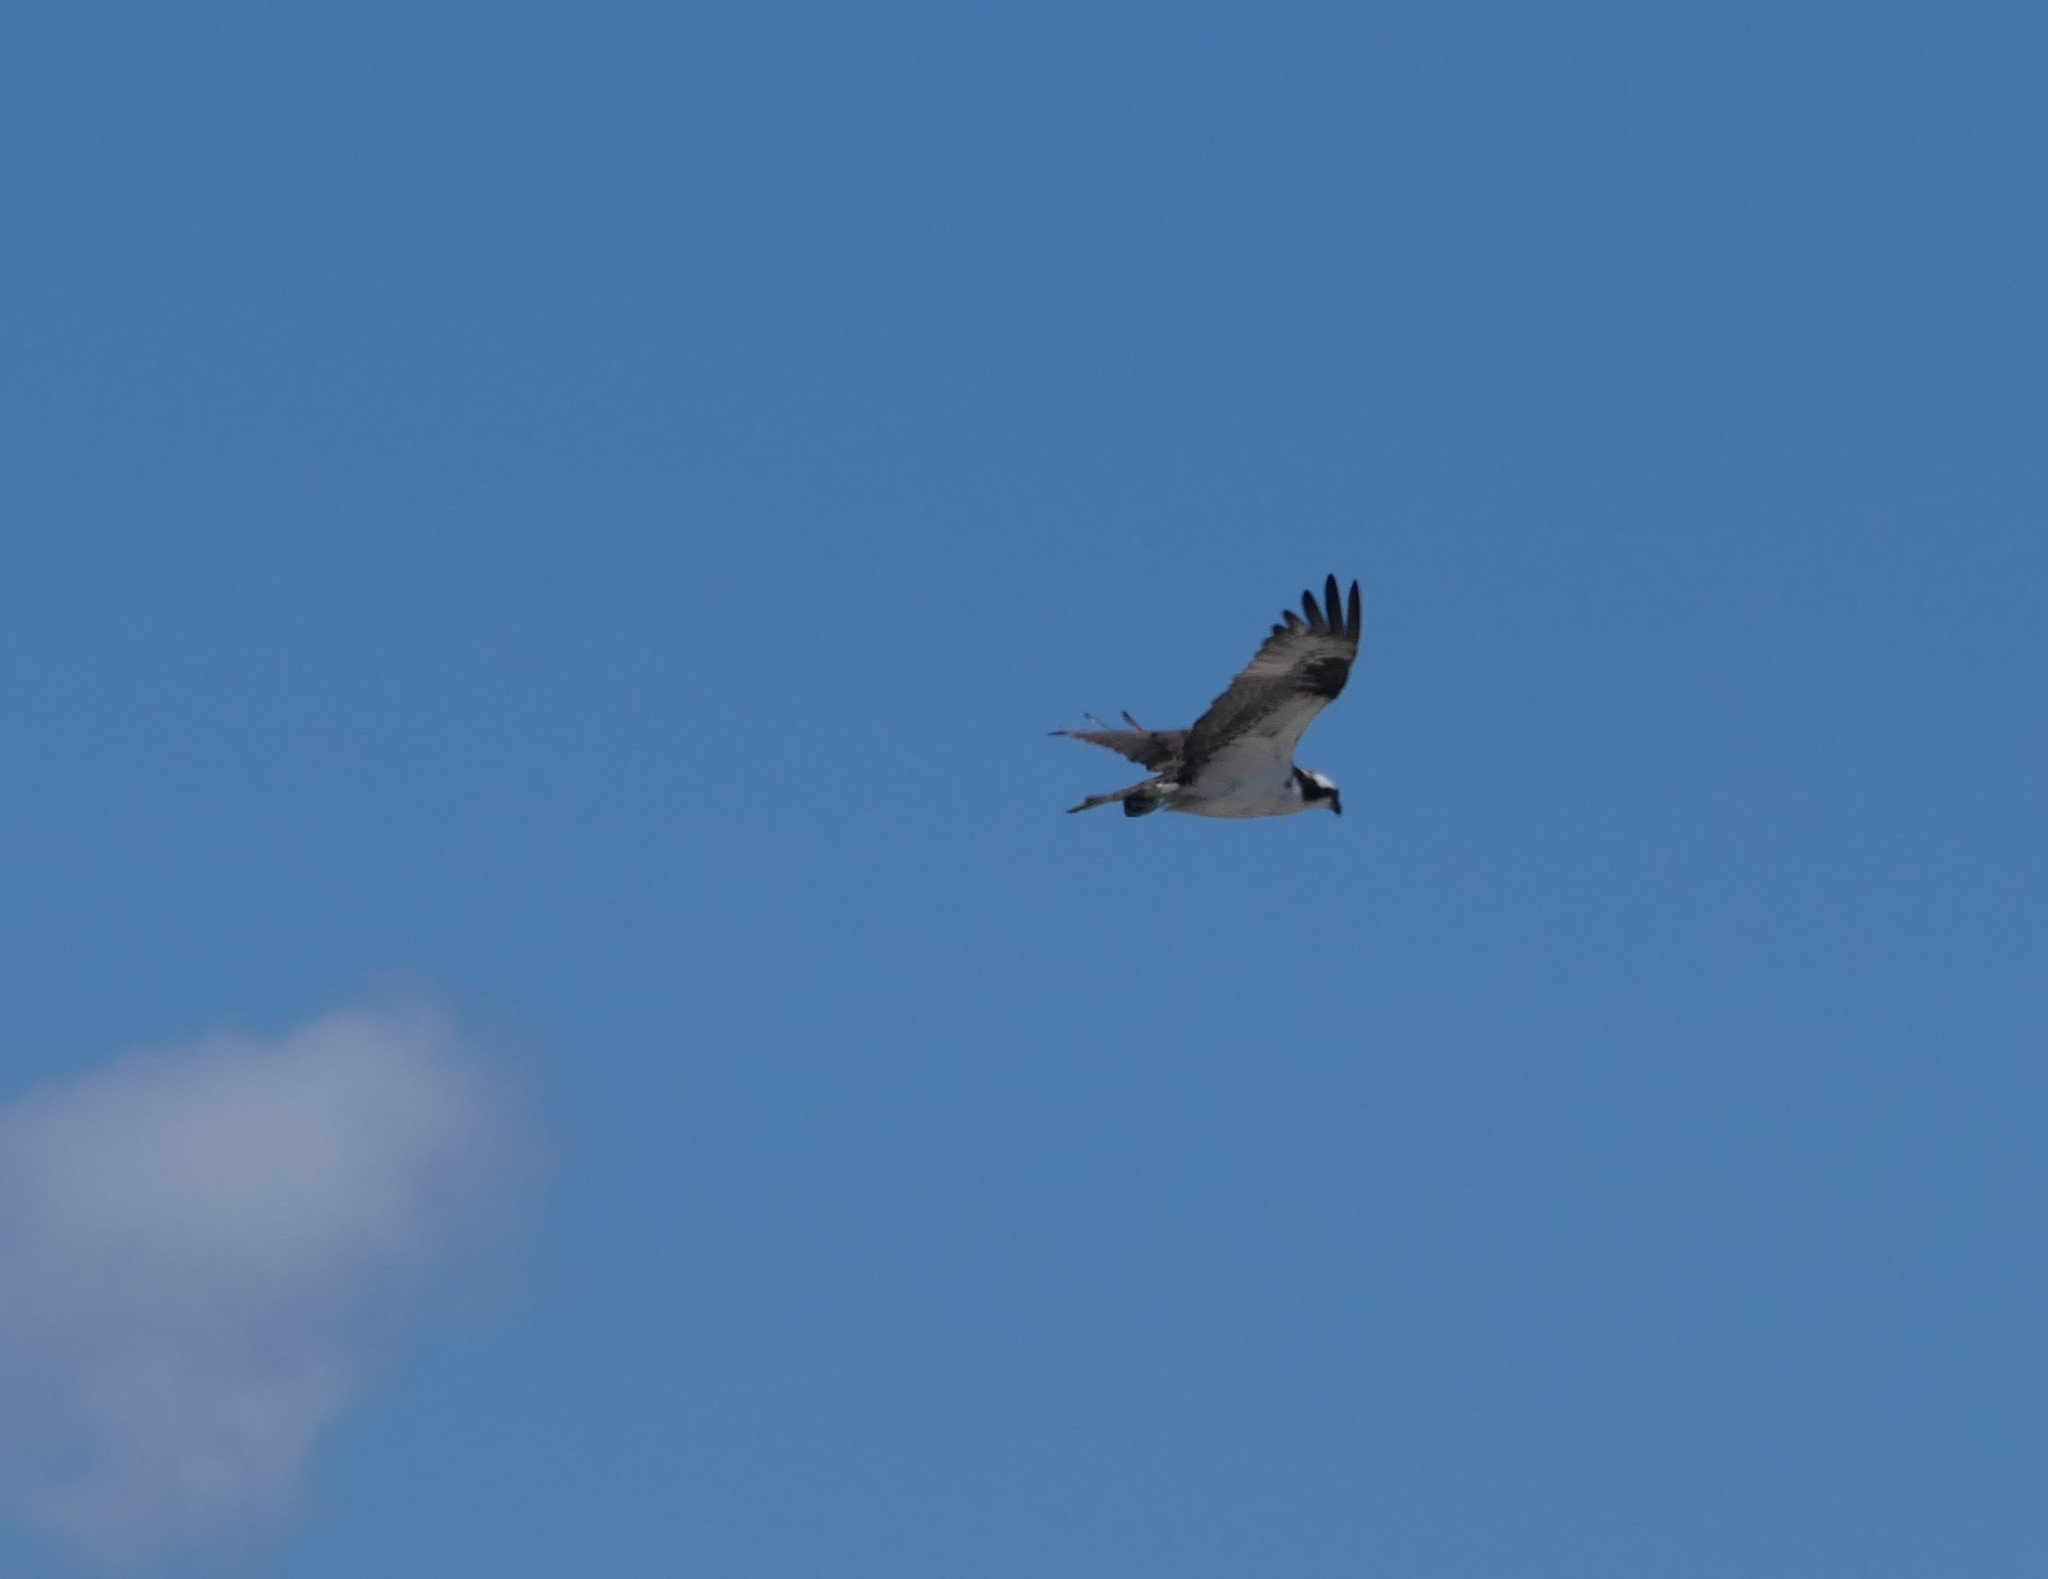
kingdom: Animalia
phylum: Chordata
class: Aves
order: Accipitriformes
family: Pandionidae
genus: Pandion
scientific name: Pandion haliaetus
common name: Osprey
